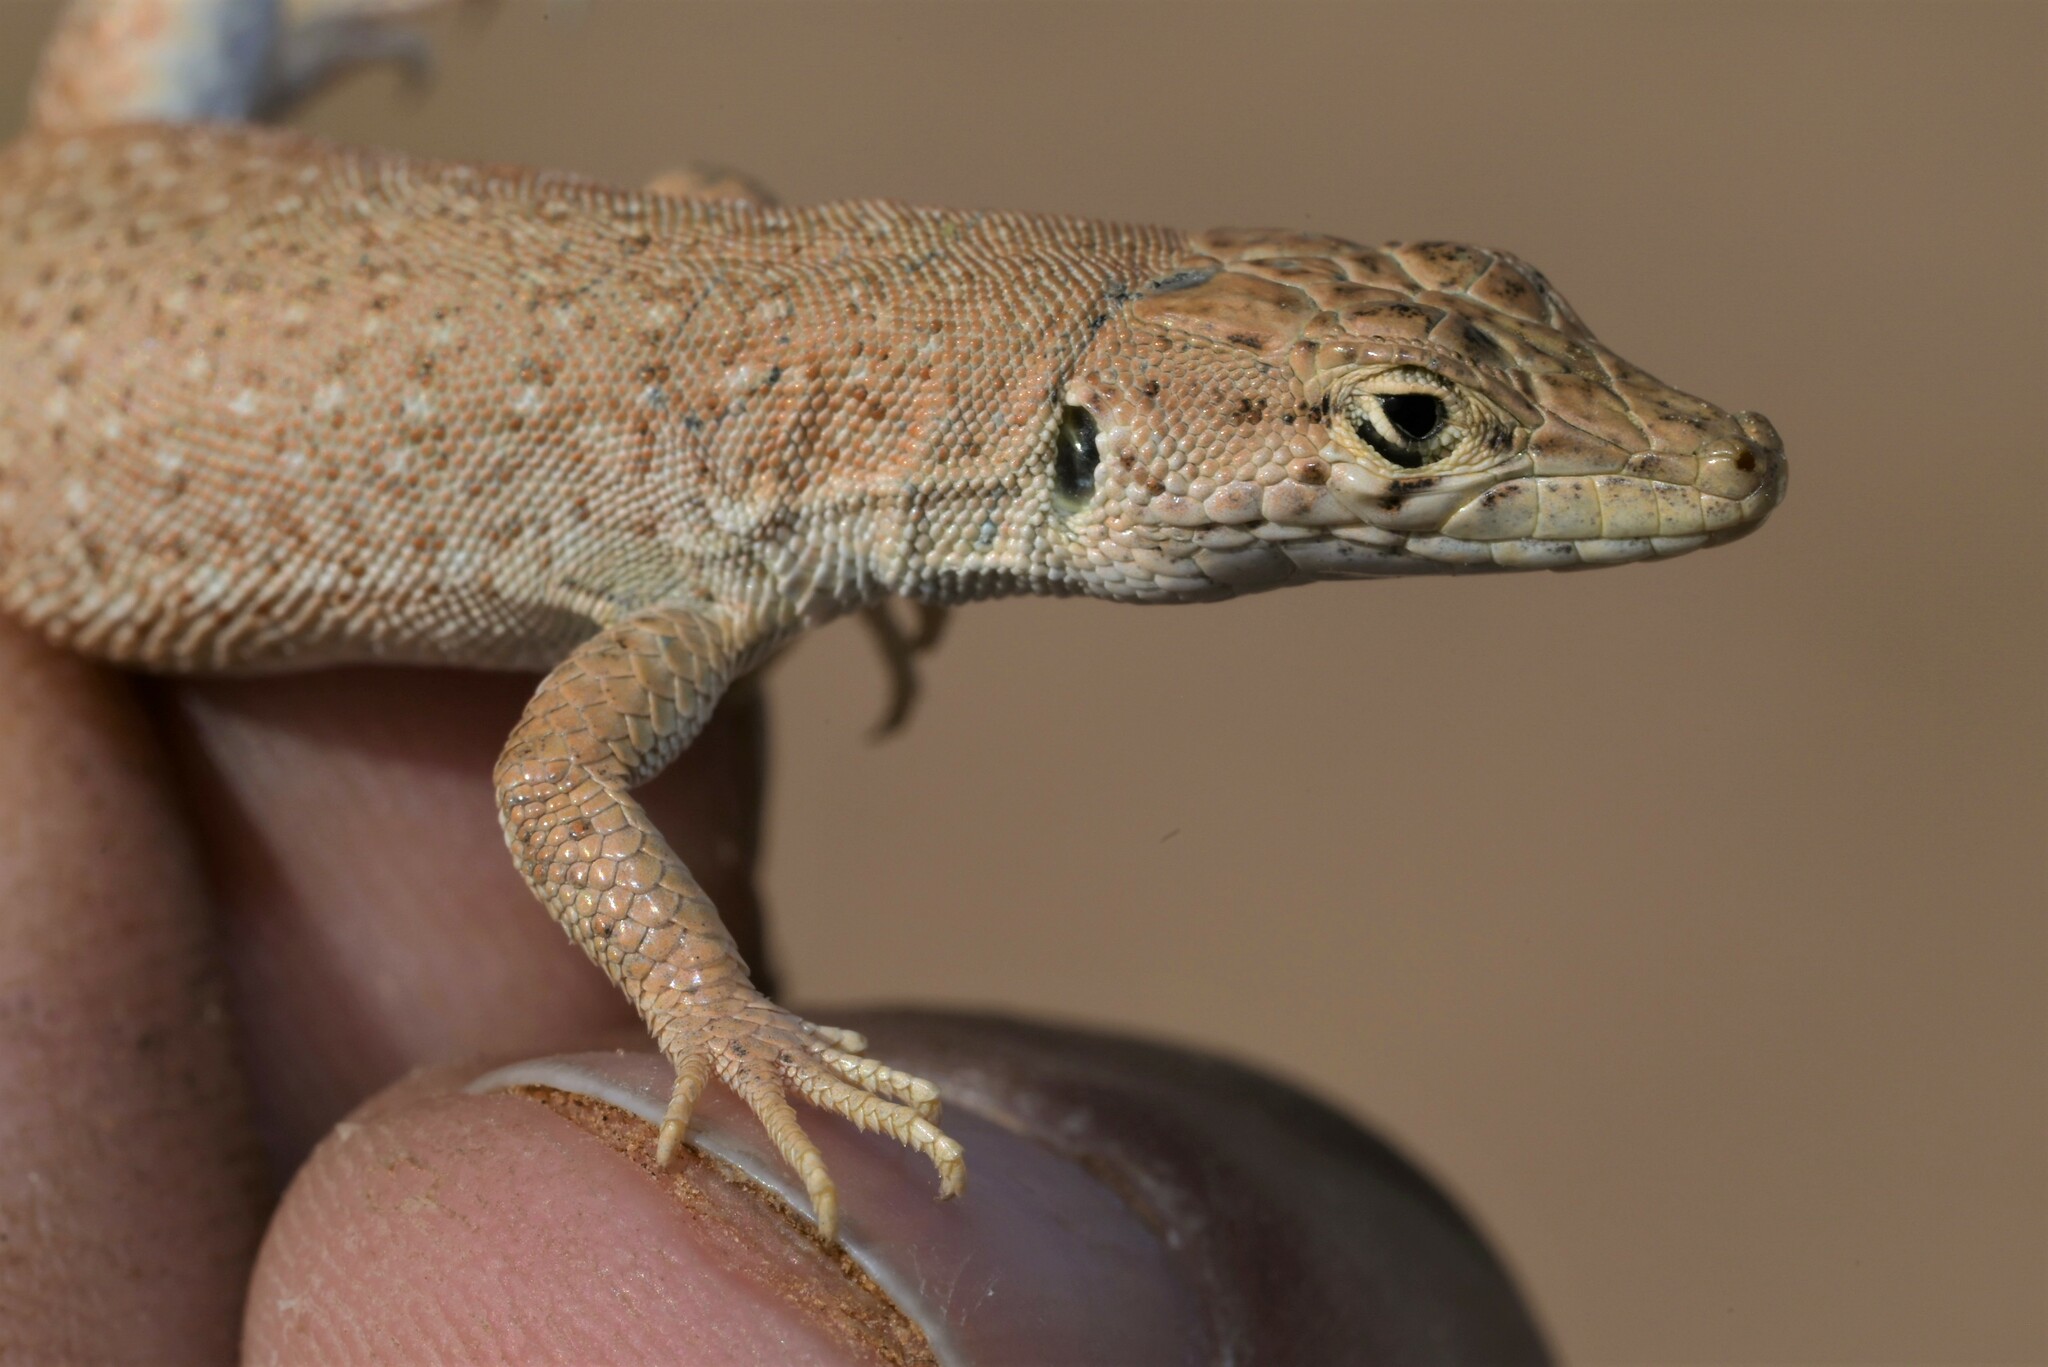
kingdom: Animalia
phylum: Chordata
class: Squamata
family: Lacertidae
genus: Mesalina
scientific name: Mesalina guttulata
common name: Desert lacerta
